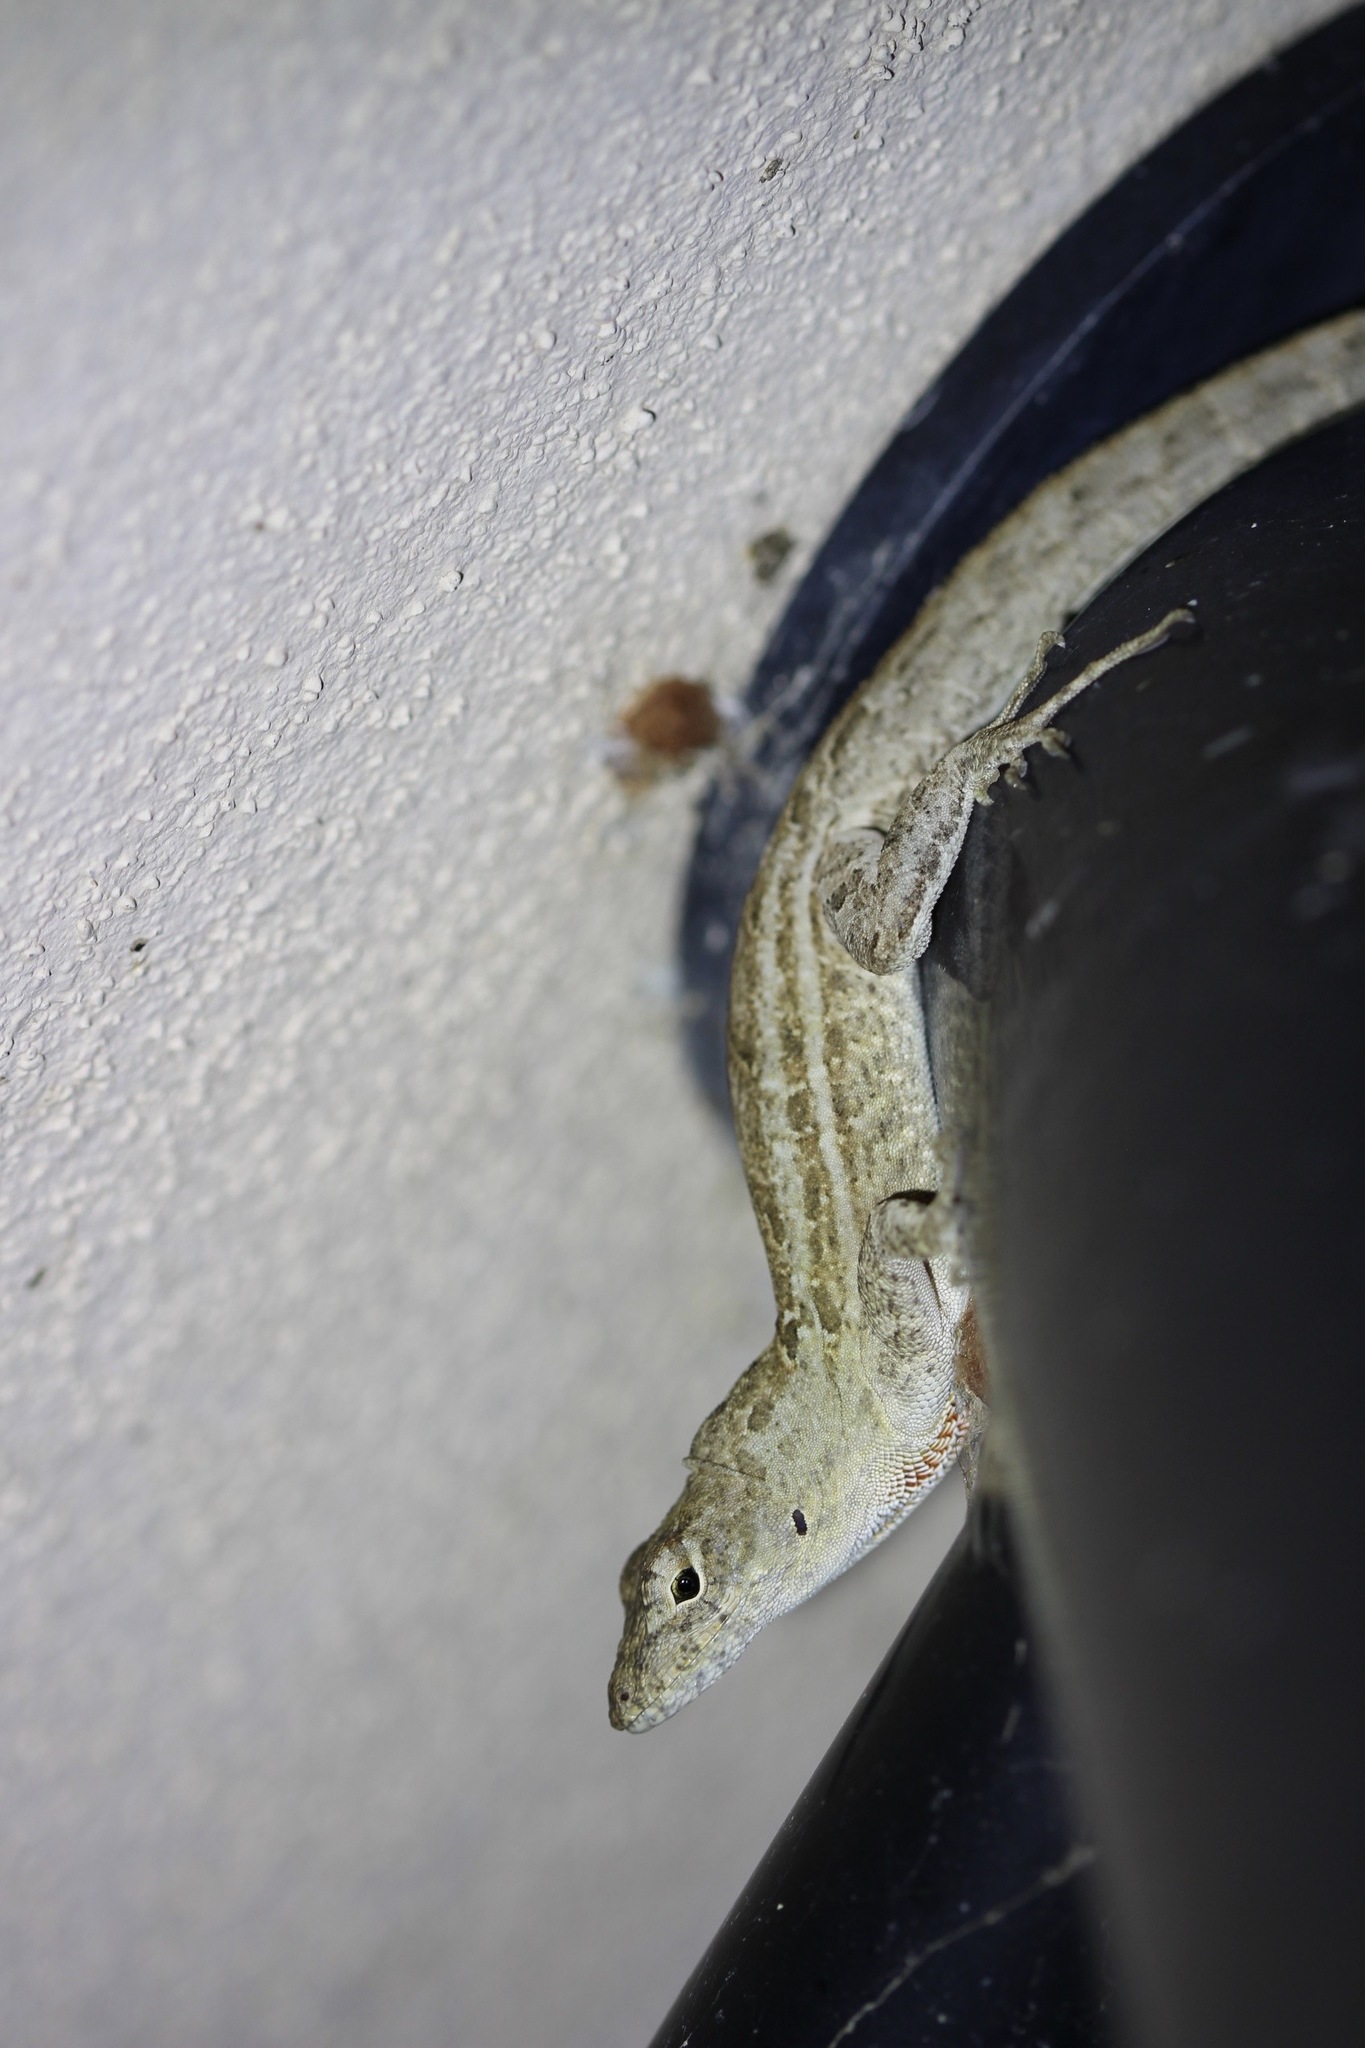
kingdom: Animalia
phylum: Chordata
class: Squamata
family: Dactyloidae
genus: Anolis
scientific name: Anolis sagrei
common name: Brown anole
